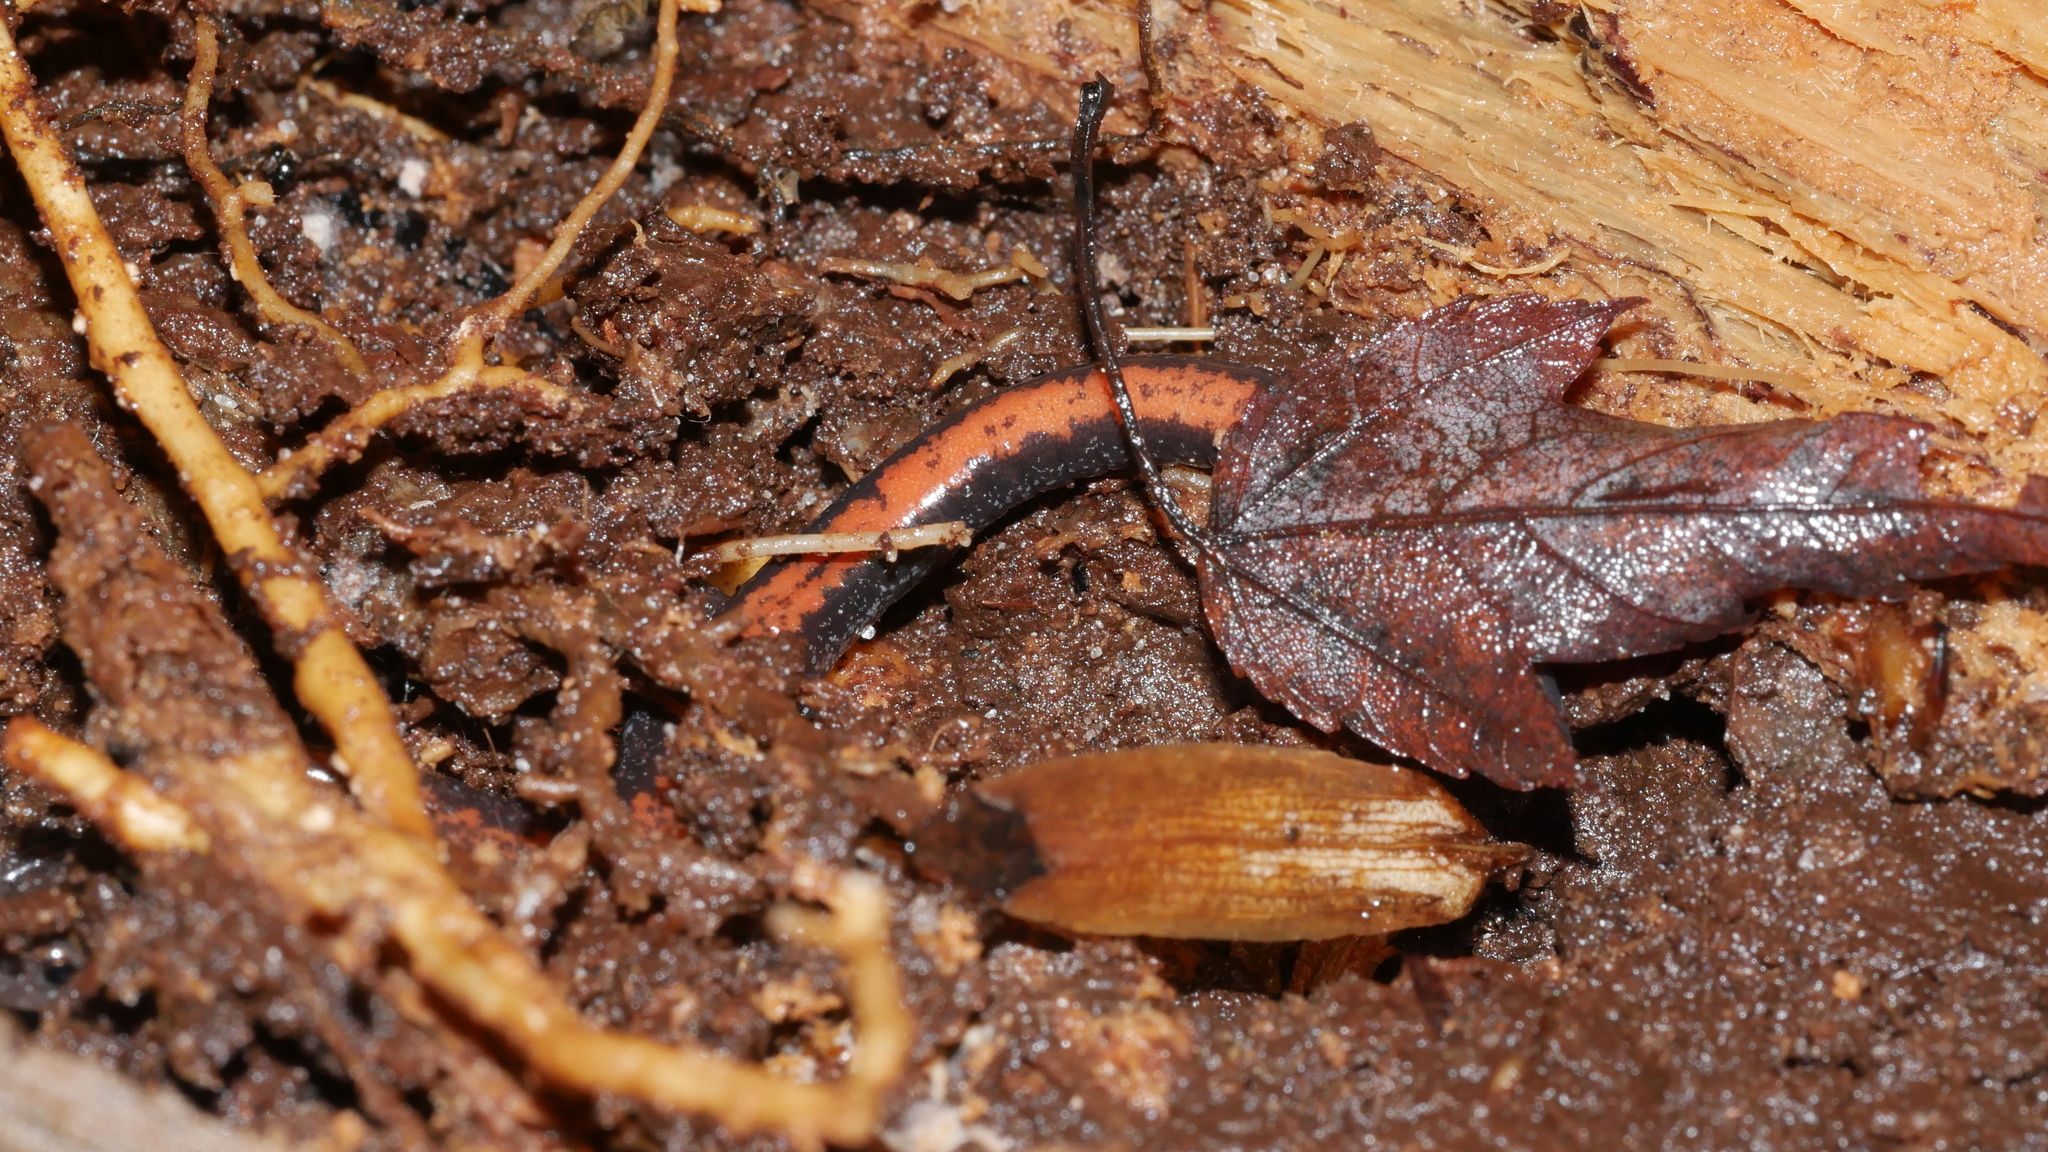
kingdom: Animalia
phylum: Chordata
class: Amphibia
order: Caudata
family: Plethodontidae
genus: Plethodon
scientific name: Plethodon cinereus
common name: Redback salamander
